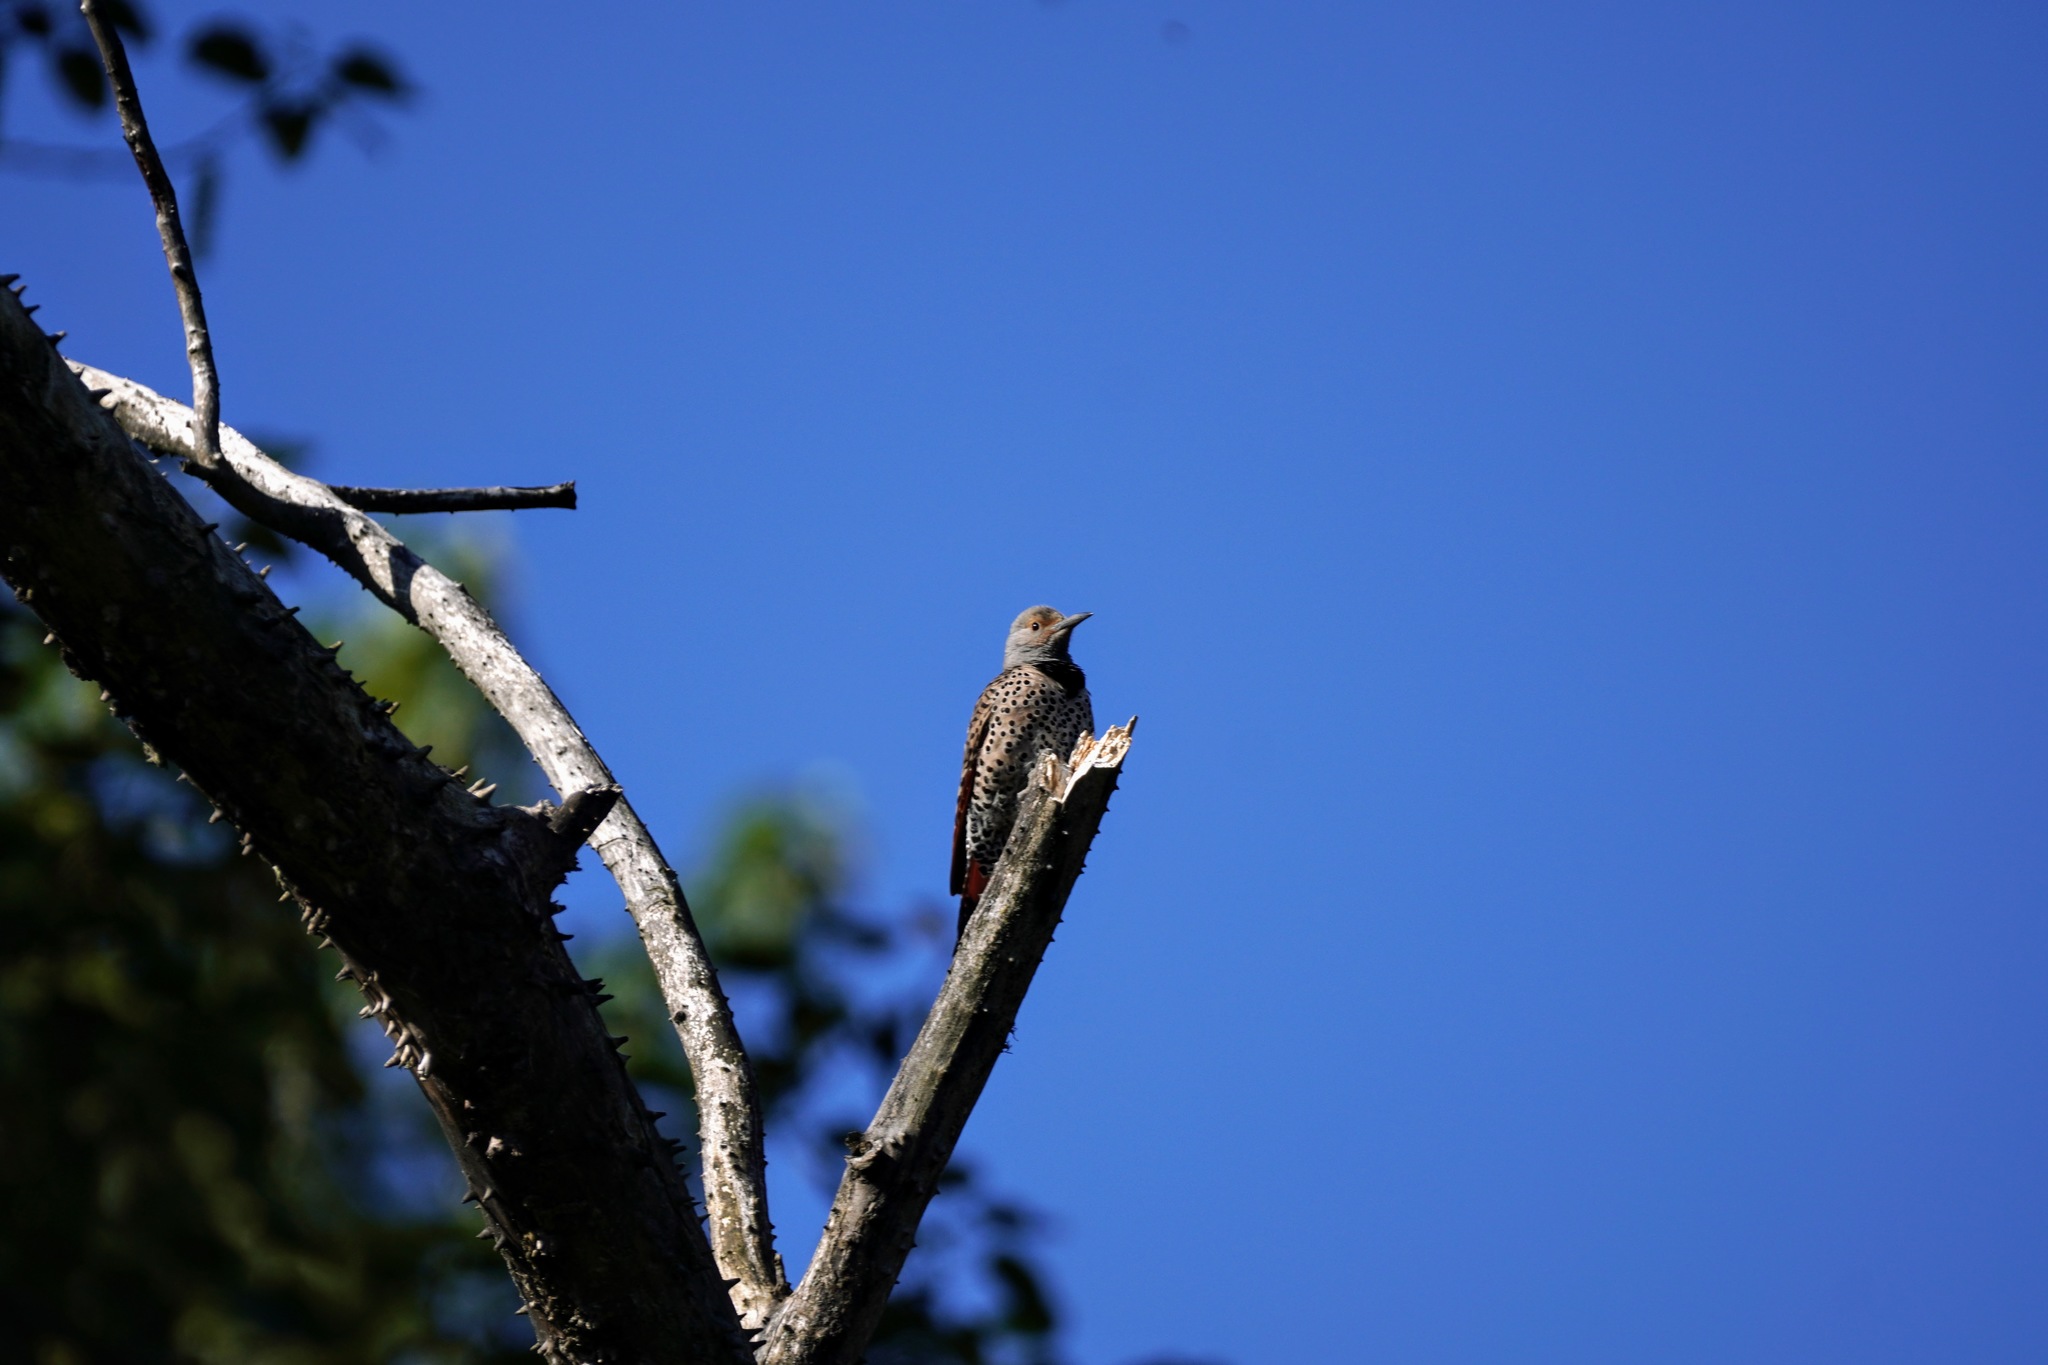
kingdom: Animalia
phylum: Chordata
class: Aves
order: Piciformes
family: Picidae
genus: Colaptes
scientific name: Colaptes auratus
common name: Northern flicker
